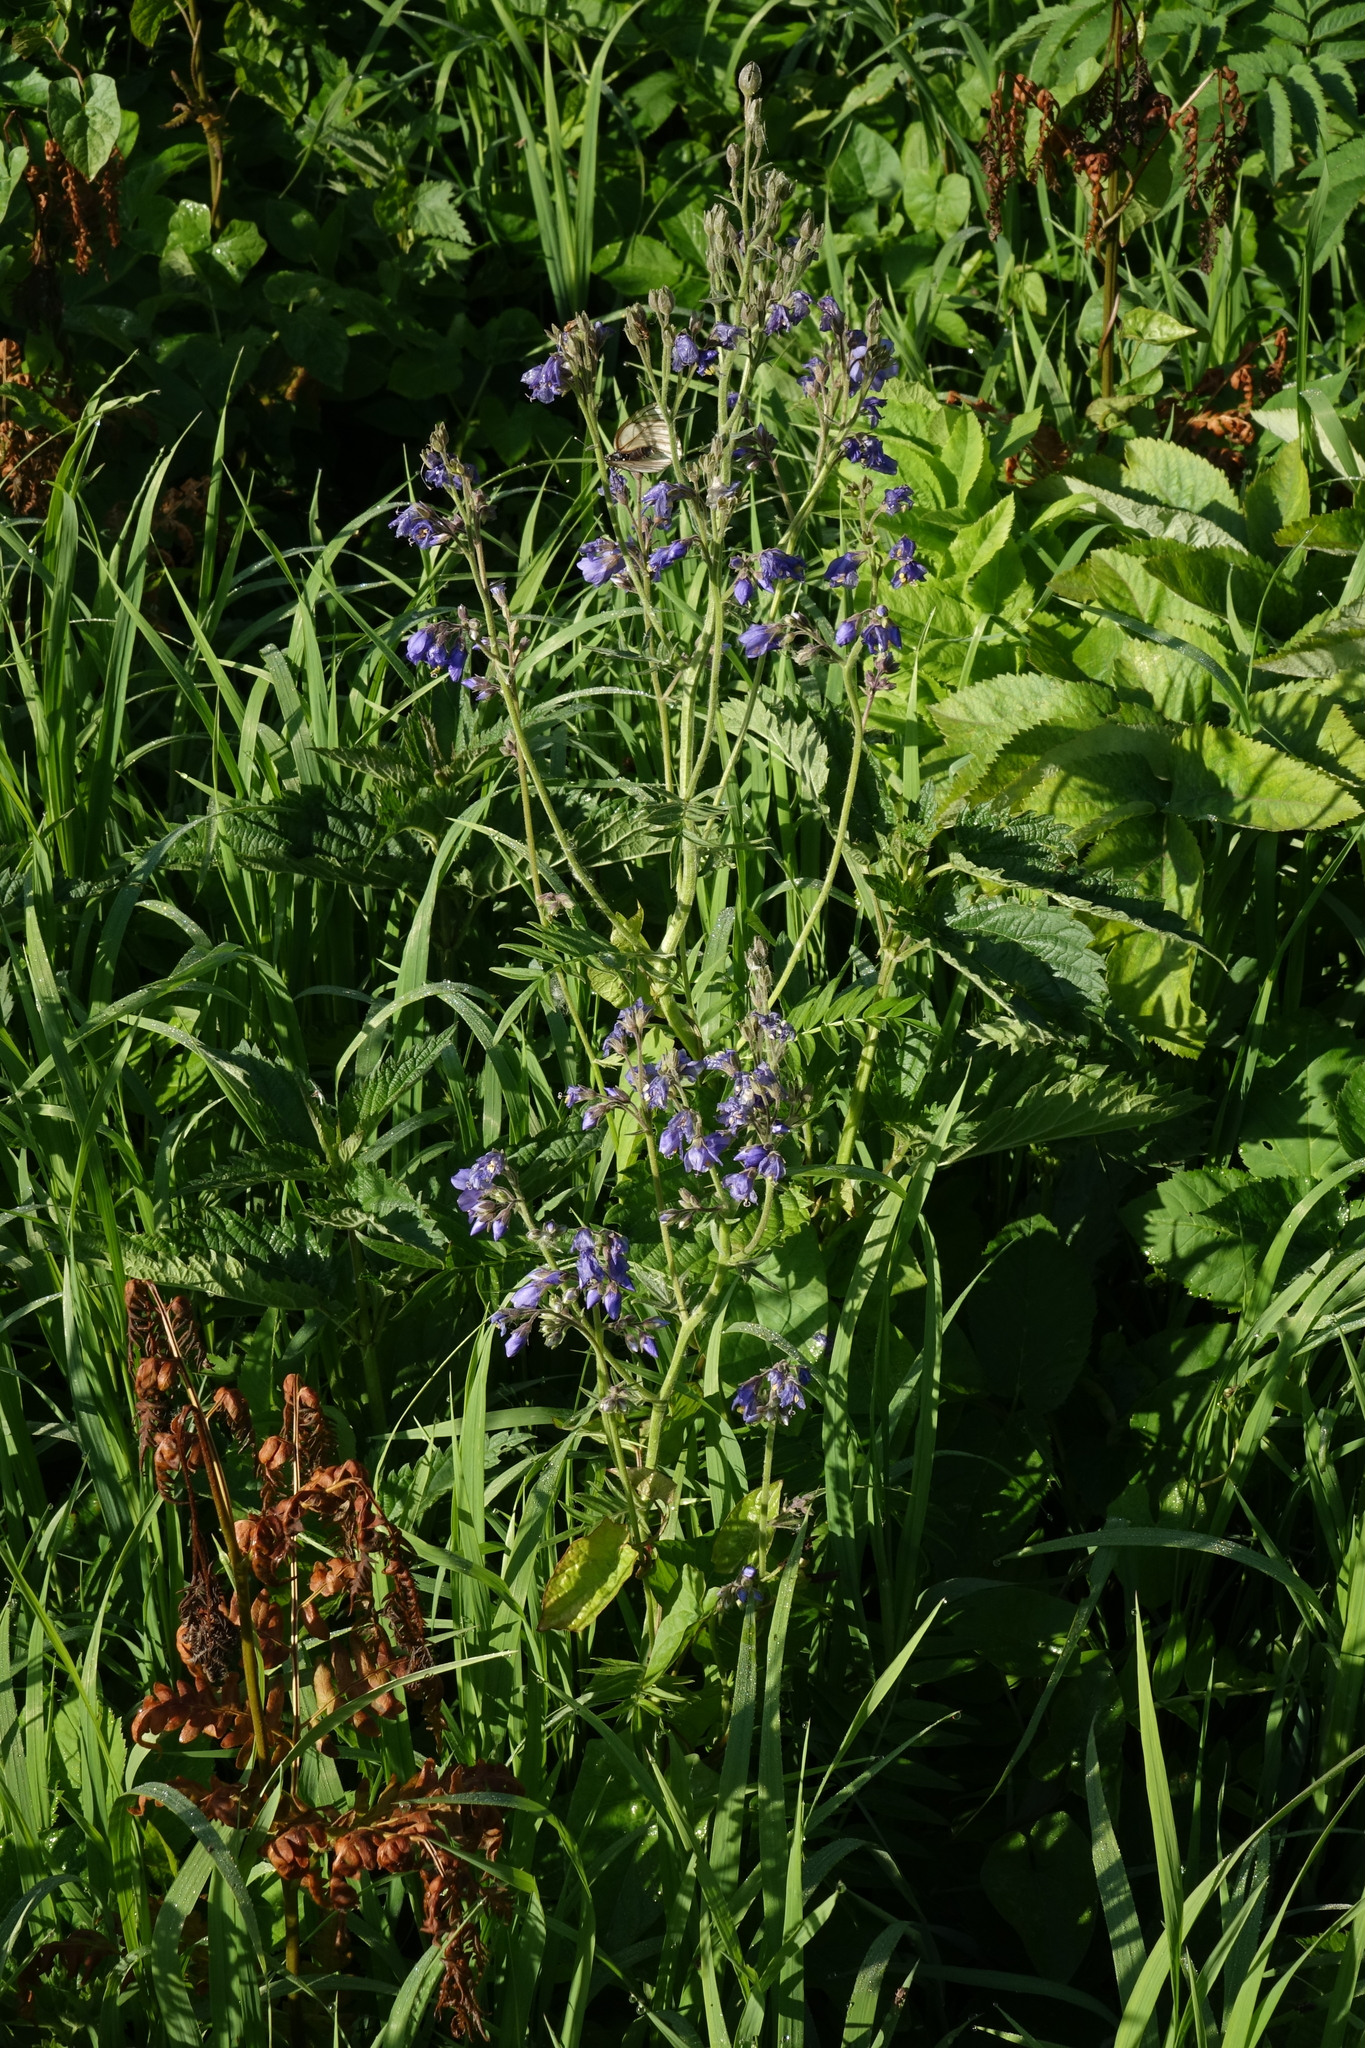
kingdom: Plantae
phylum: Tracheophyta
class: Magnoliopsida
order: Ericales
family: Polemoniaceae
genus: Polemonium
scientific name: Polemonium caeruleum
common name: Jacob's-ladder
